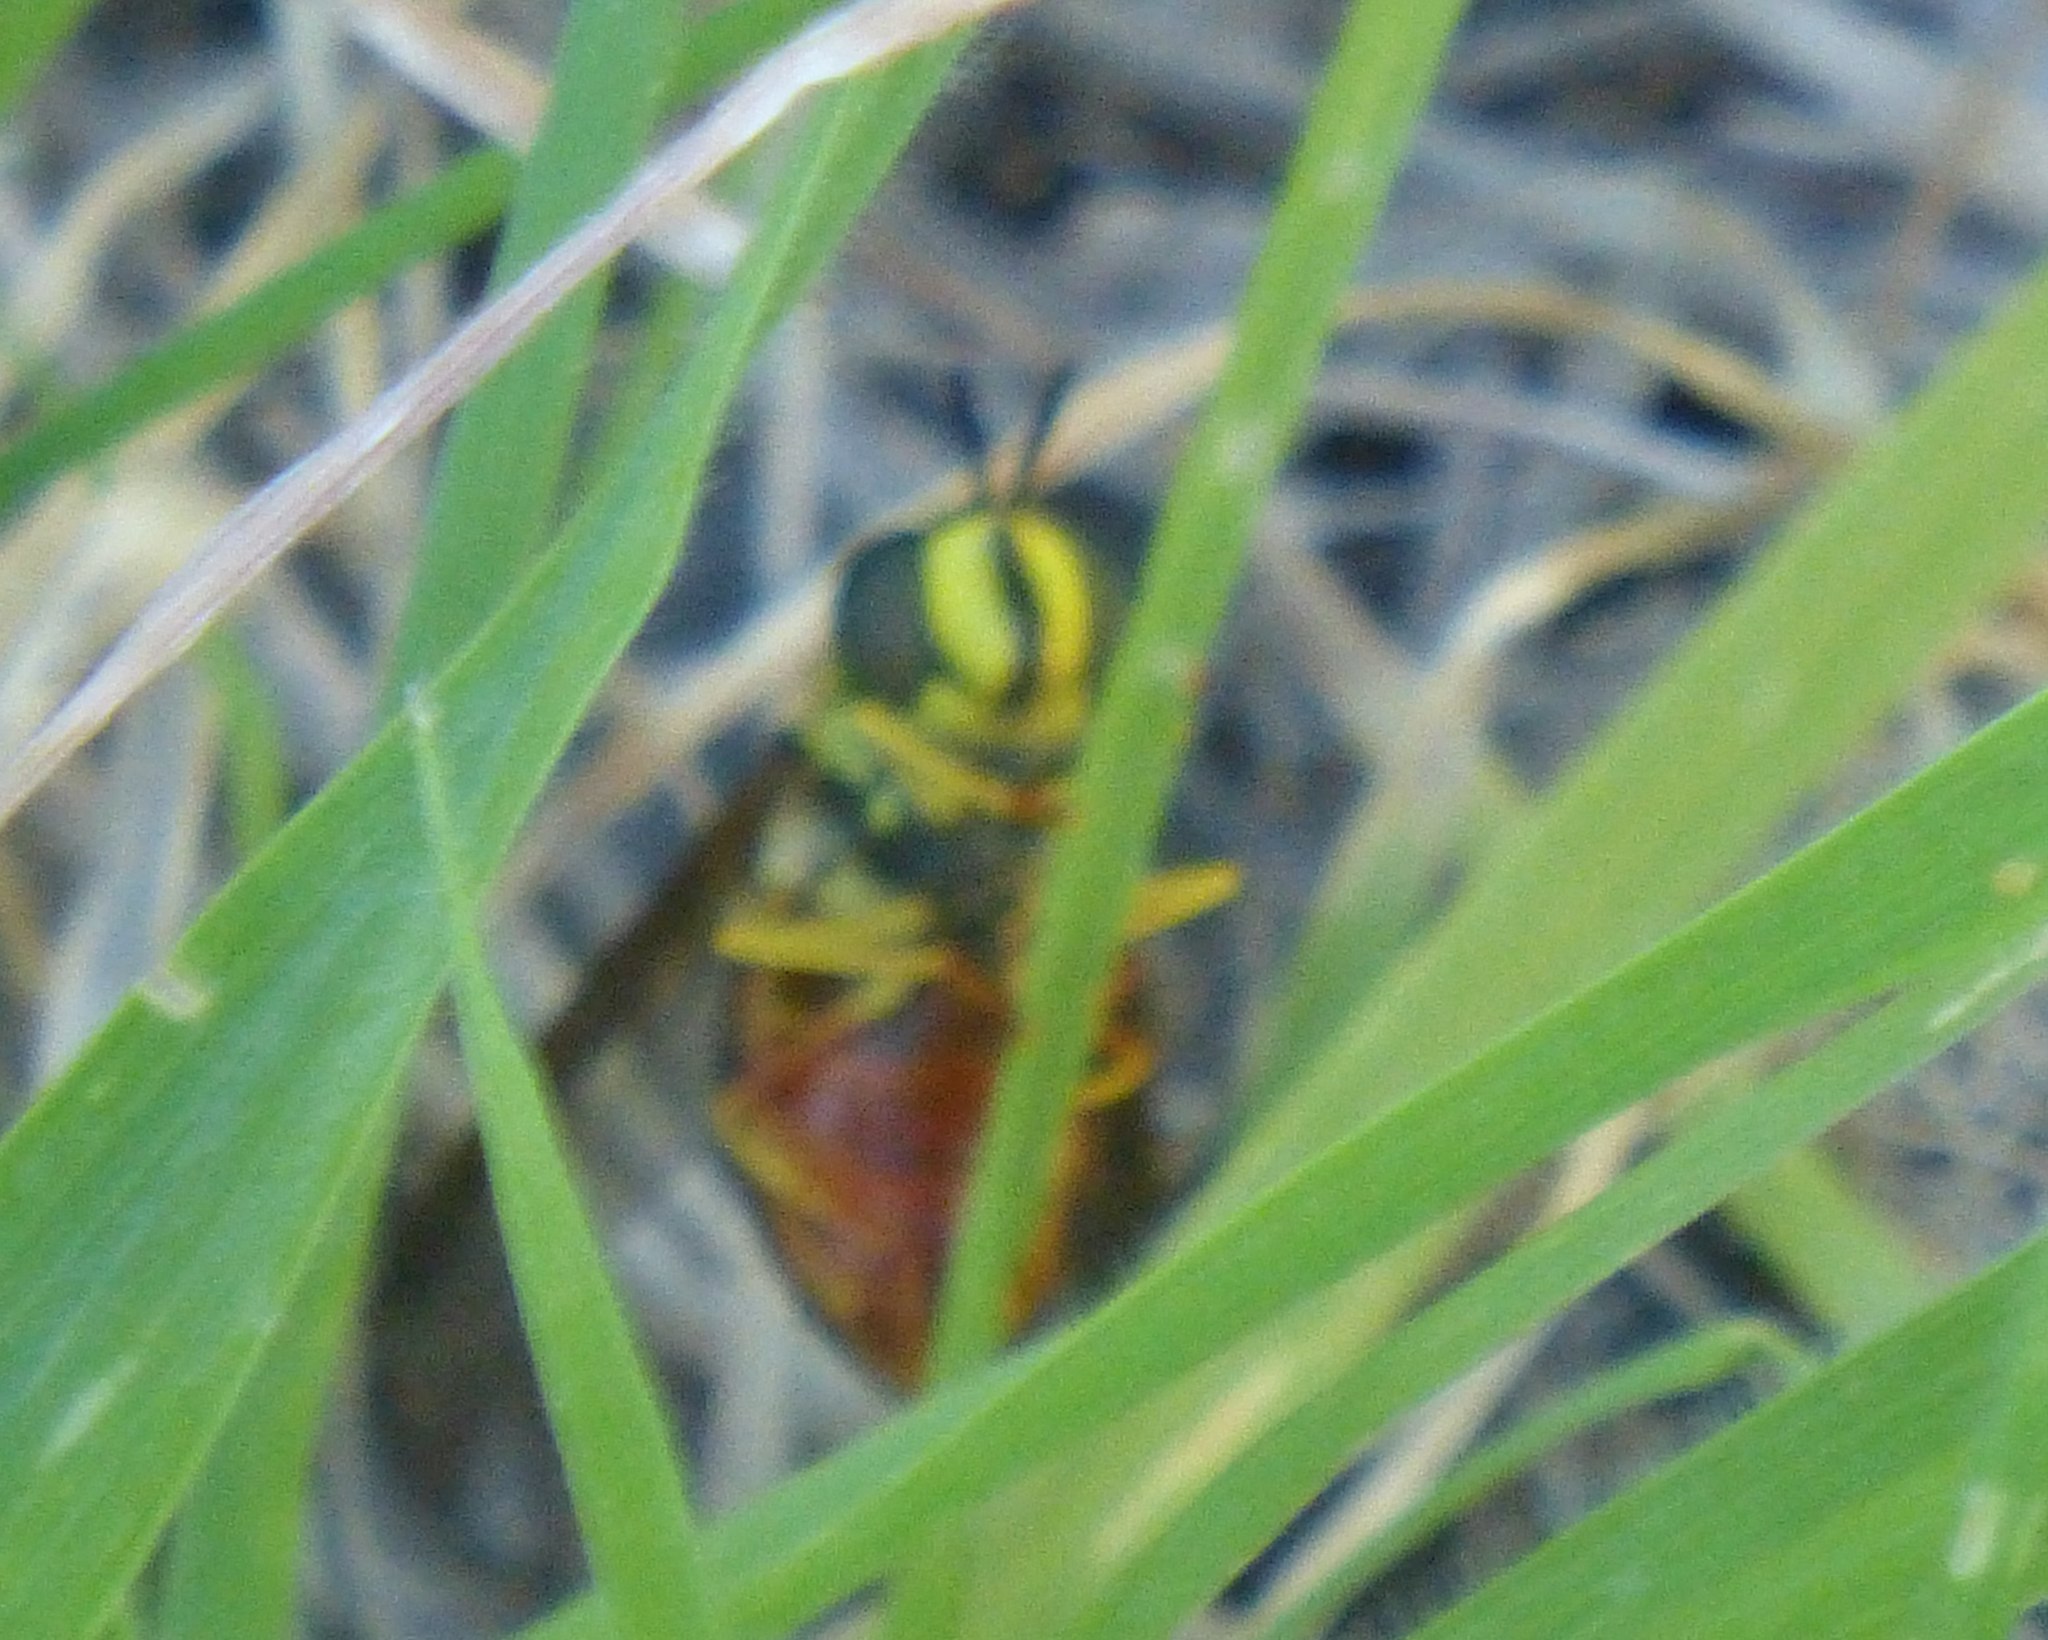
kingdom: Animalia
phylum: Arthropoda
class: Insecta
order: Diptera
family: Syrphidae
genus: Chrysotoxum
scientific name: Chrysotoxum triarcuatum
